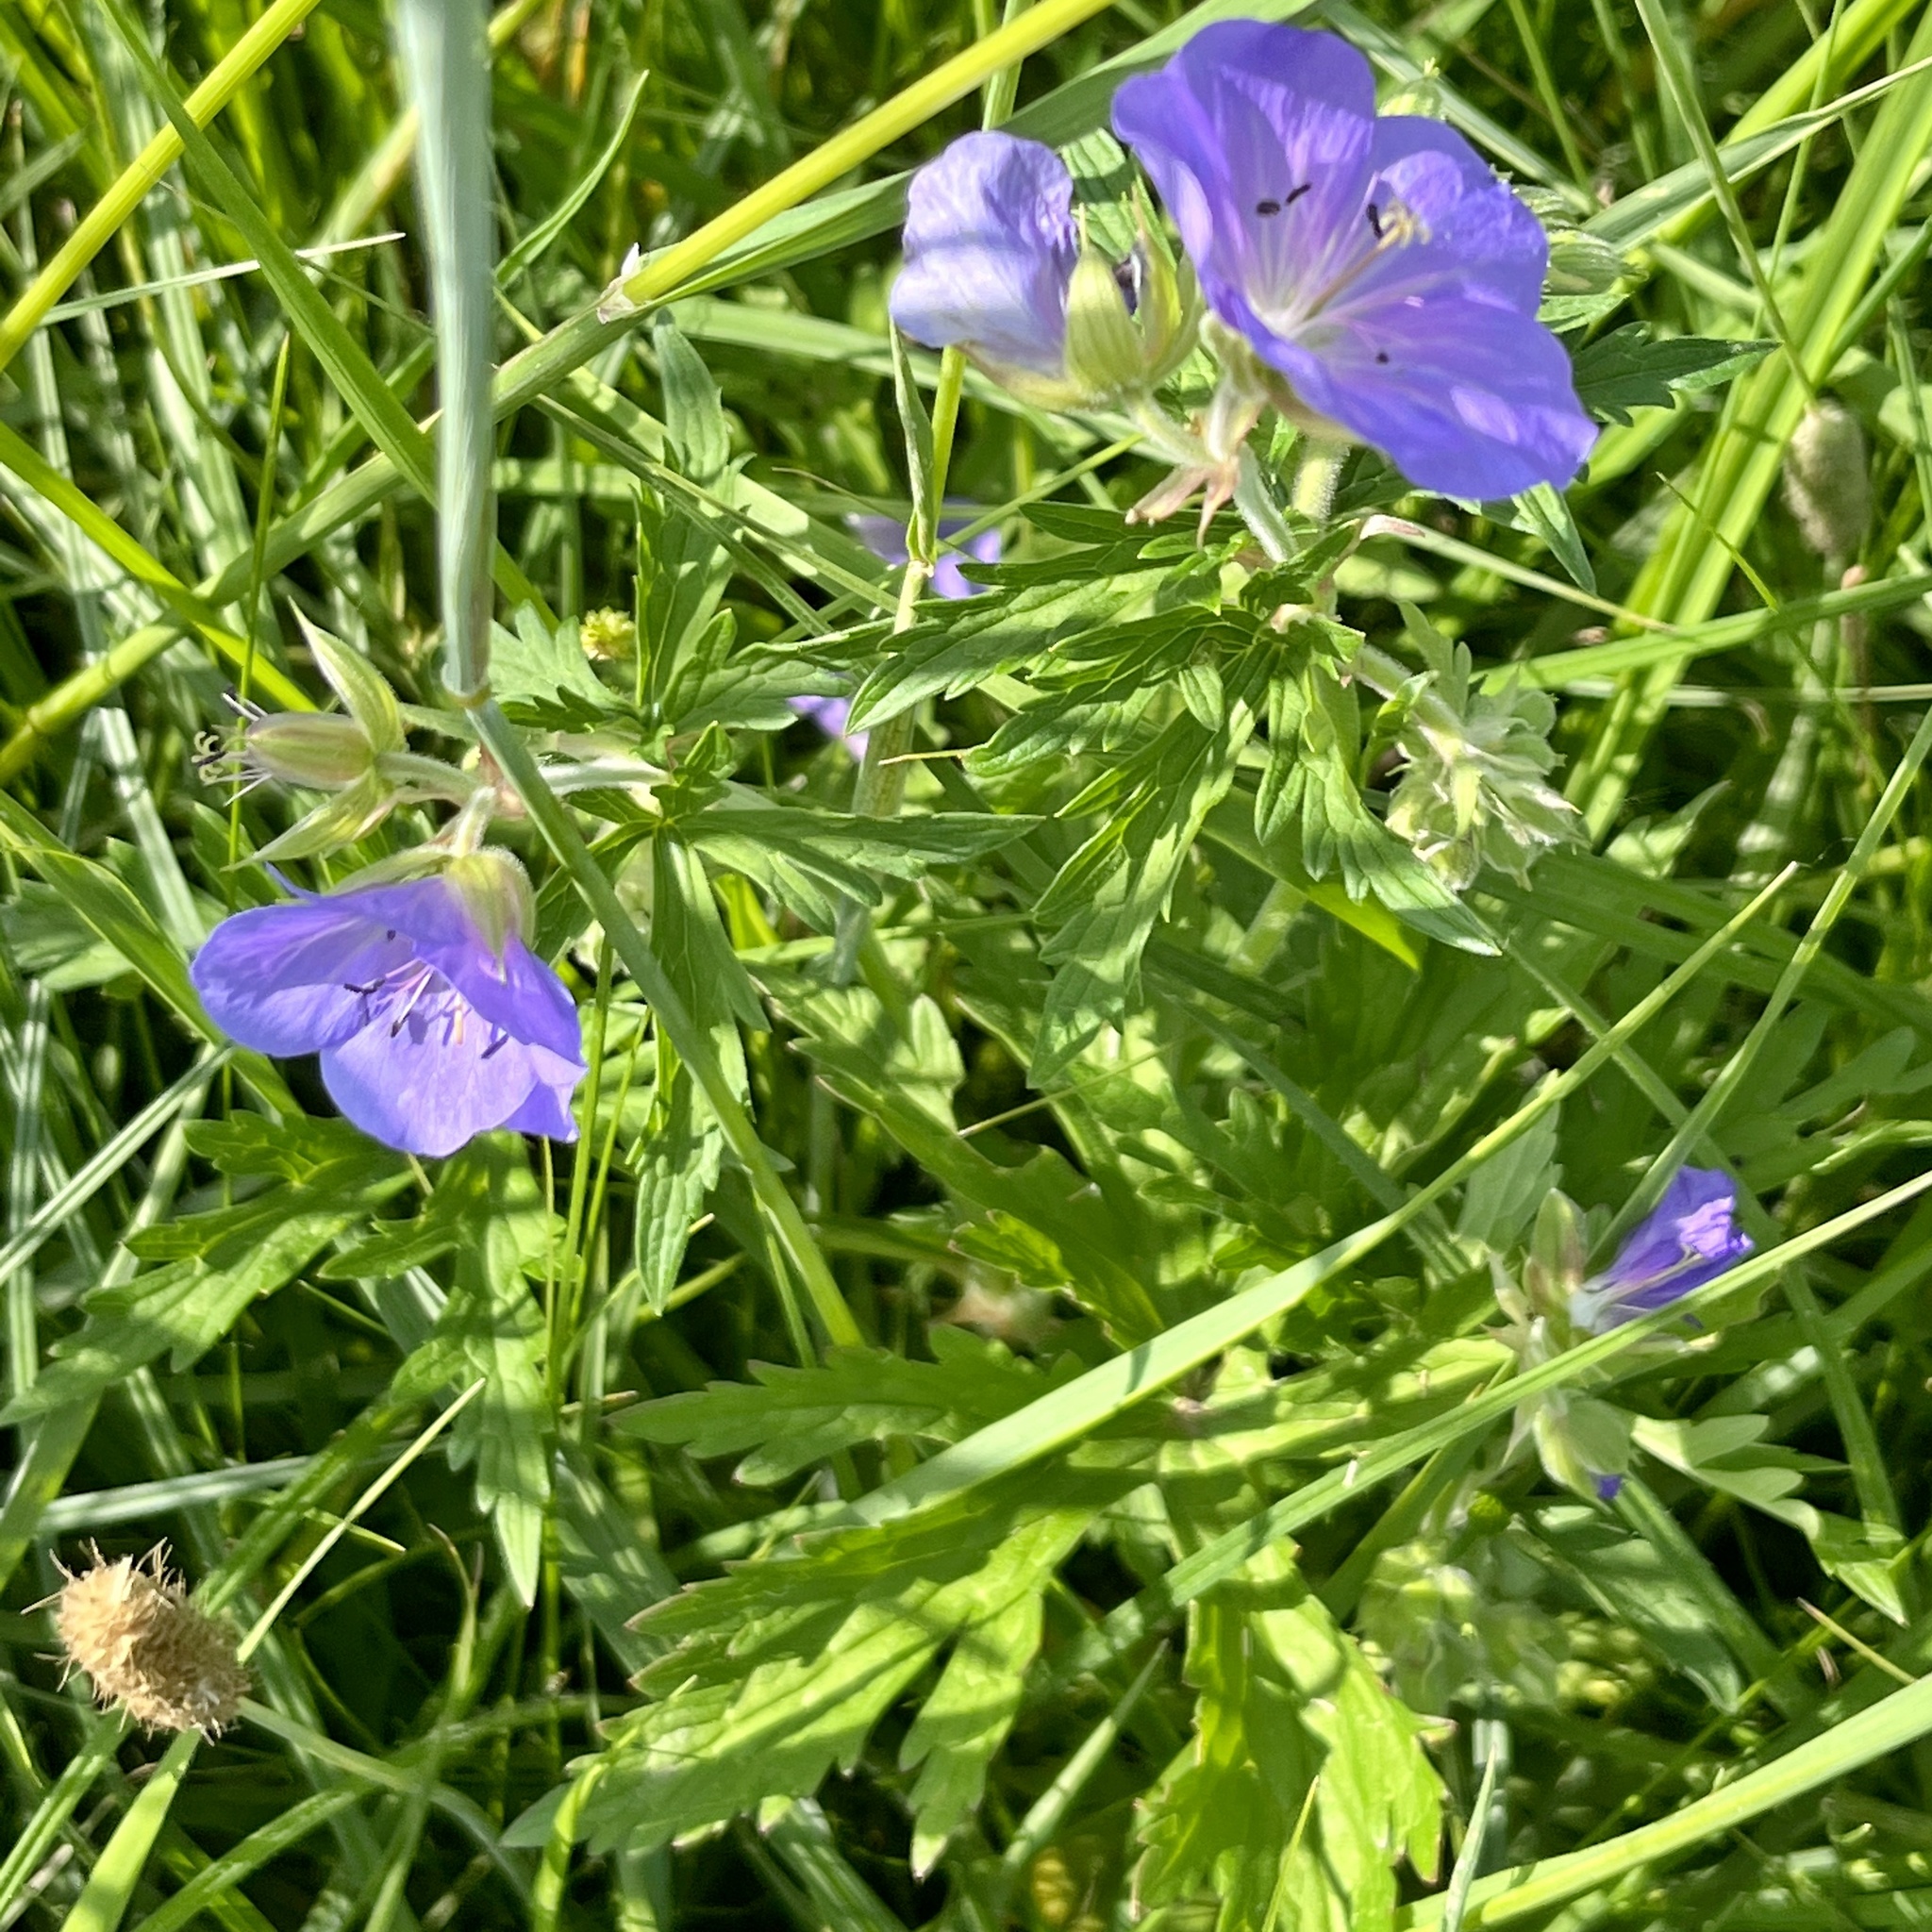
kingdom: Plantae
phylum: Tracheophyta
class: Magnoliopsida
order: Geraniales
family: Geraniaceae
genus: Geranium
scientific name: Geranium pratense
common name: Meadow crane's-bill
